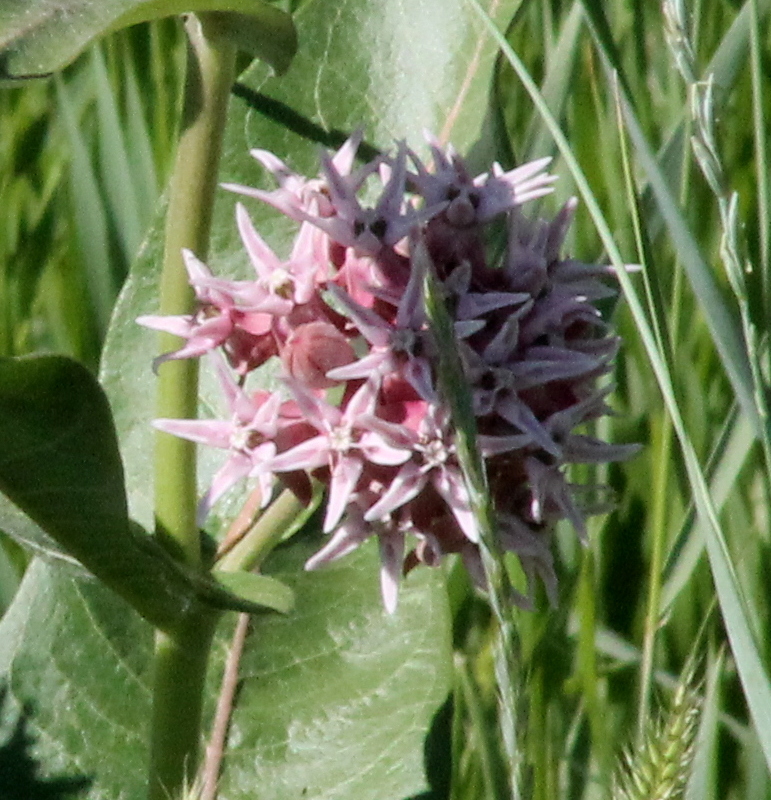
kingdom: Plantae
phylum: Tracheophyta
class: Magnoliopsida
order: Gentianales
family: Apocynaceae
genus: Asclepias
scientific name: Asclepias speciosa
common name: Showy milkweed
